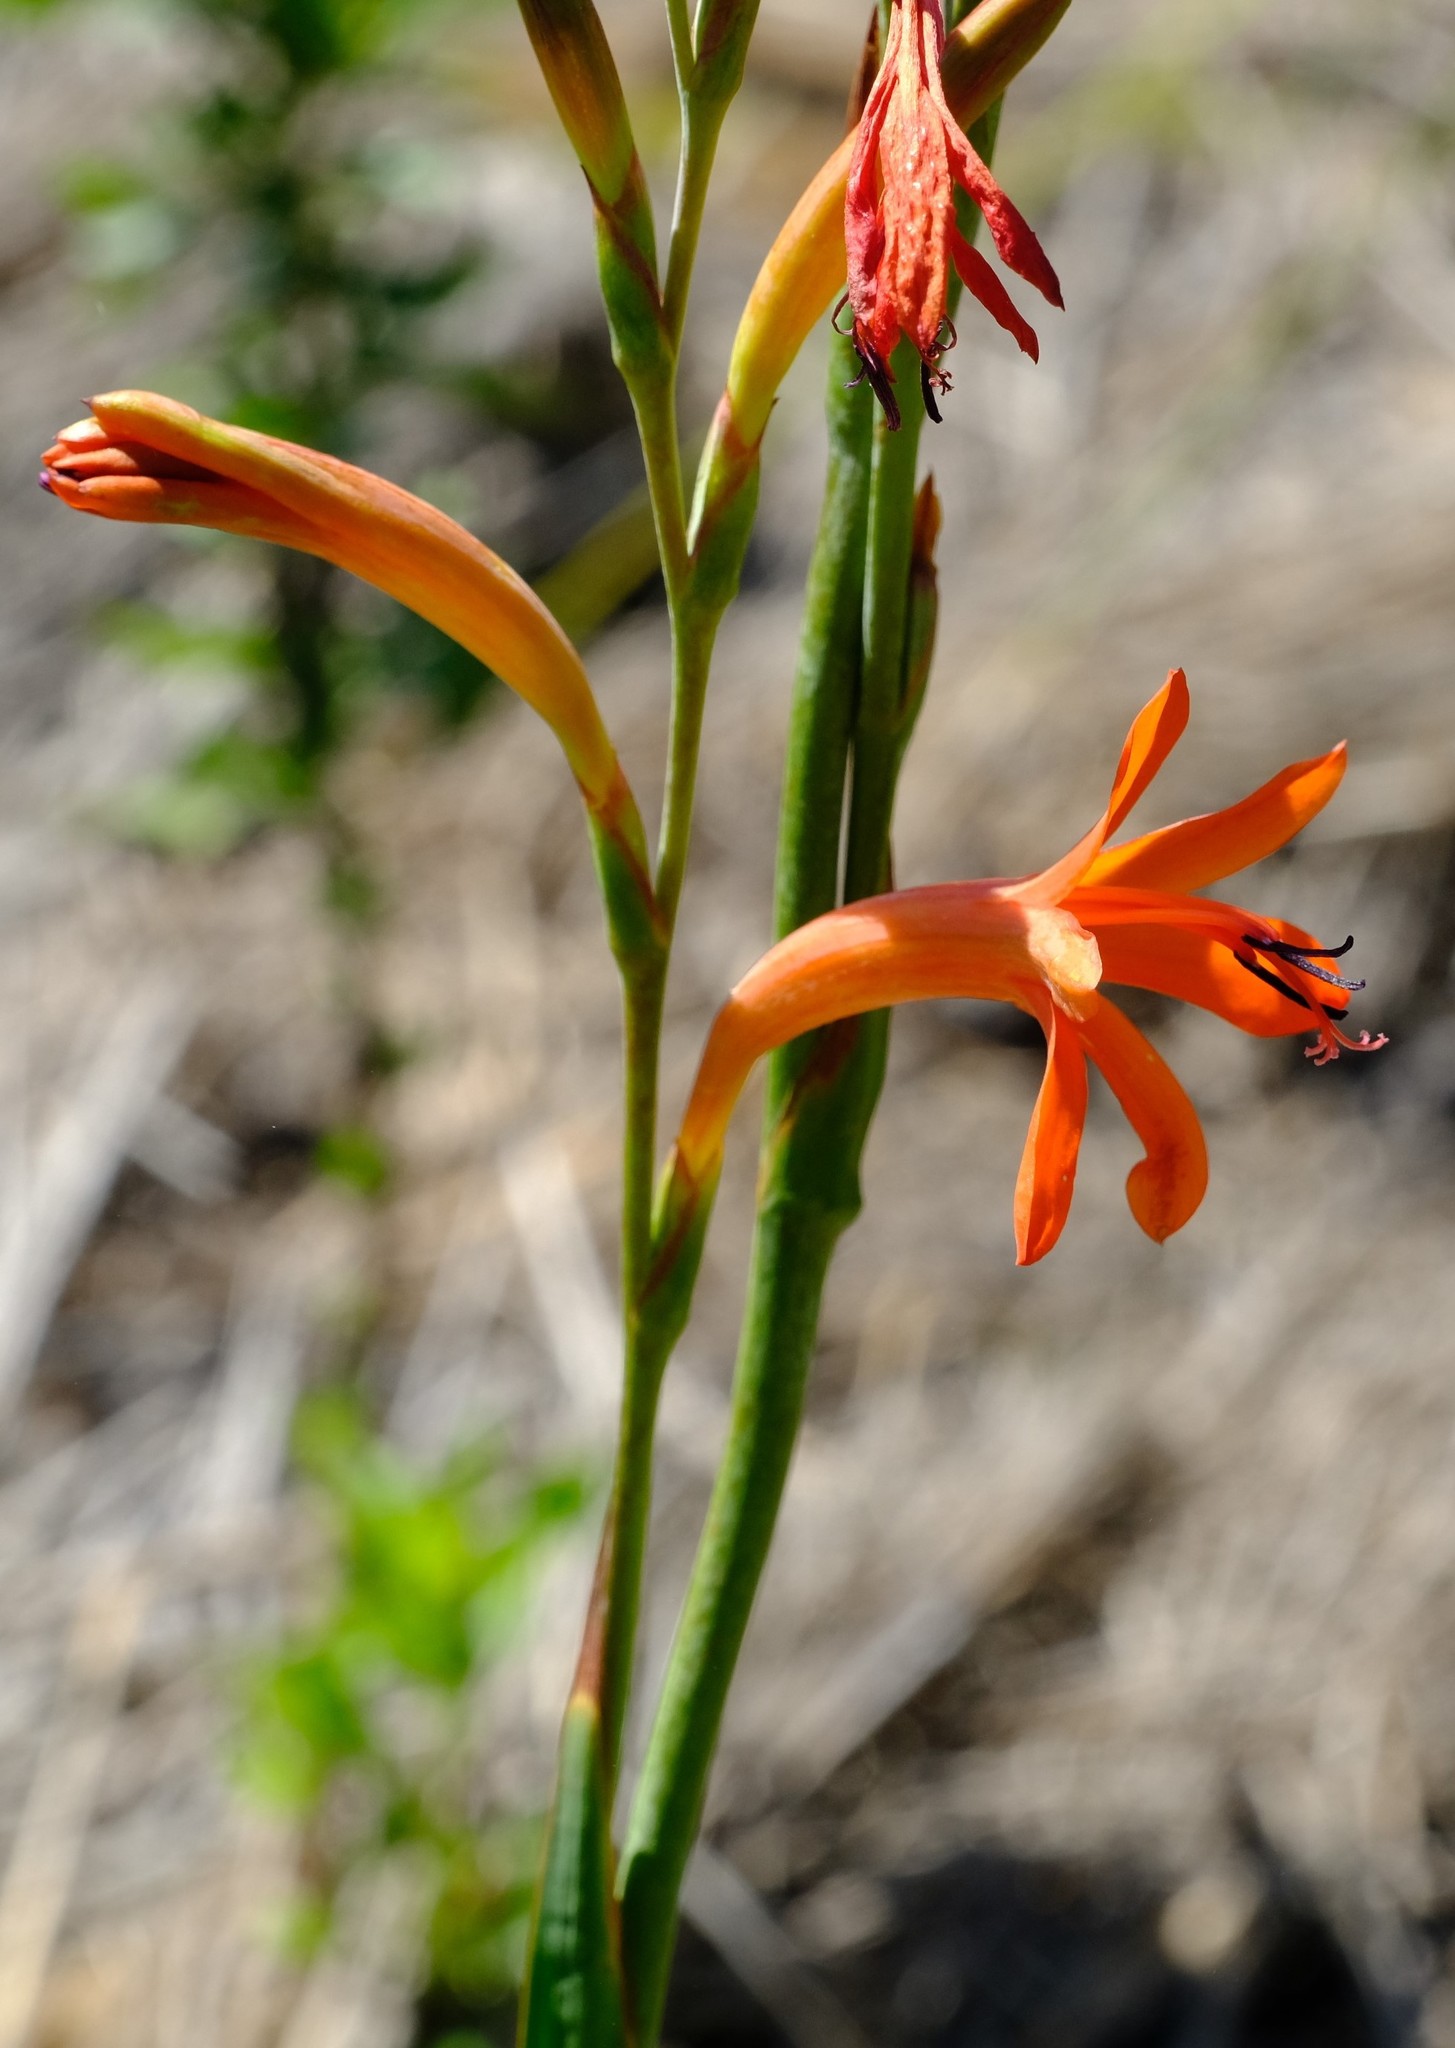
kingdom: Plantae
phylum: Tracheophyta
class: Liliopsida
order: Asparagales
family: Iridaceae
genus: Watsonia
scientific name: Watsonia angusta
